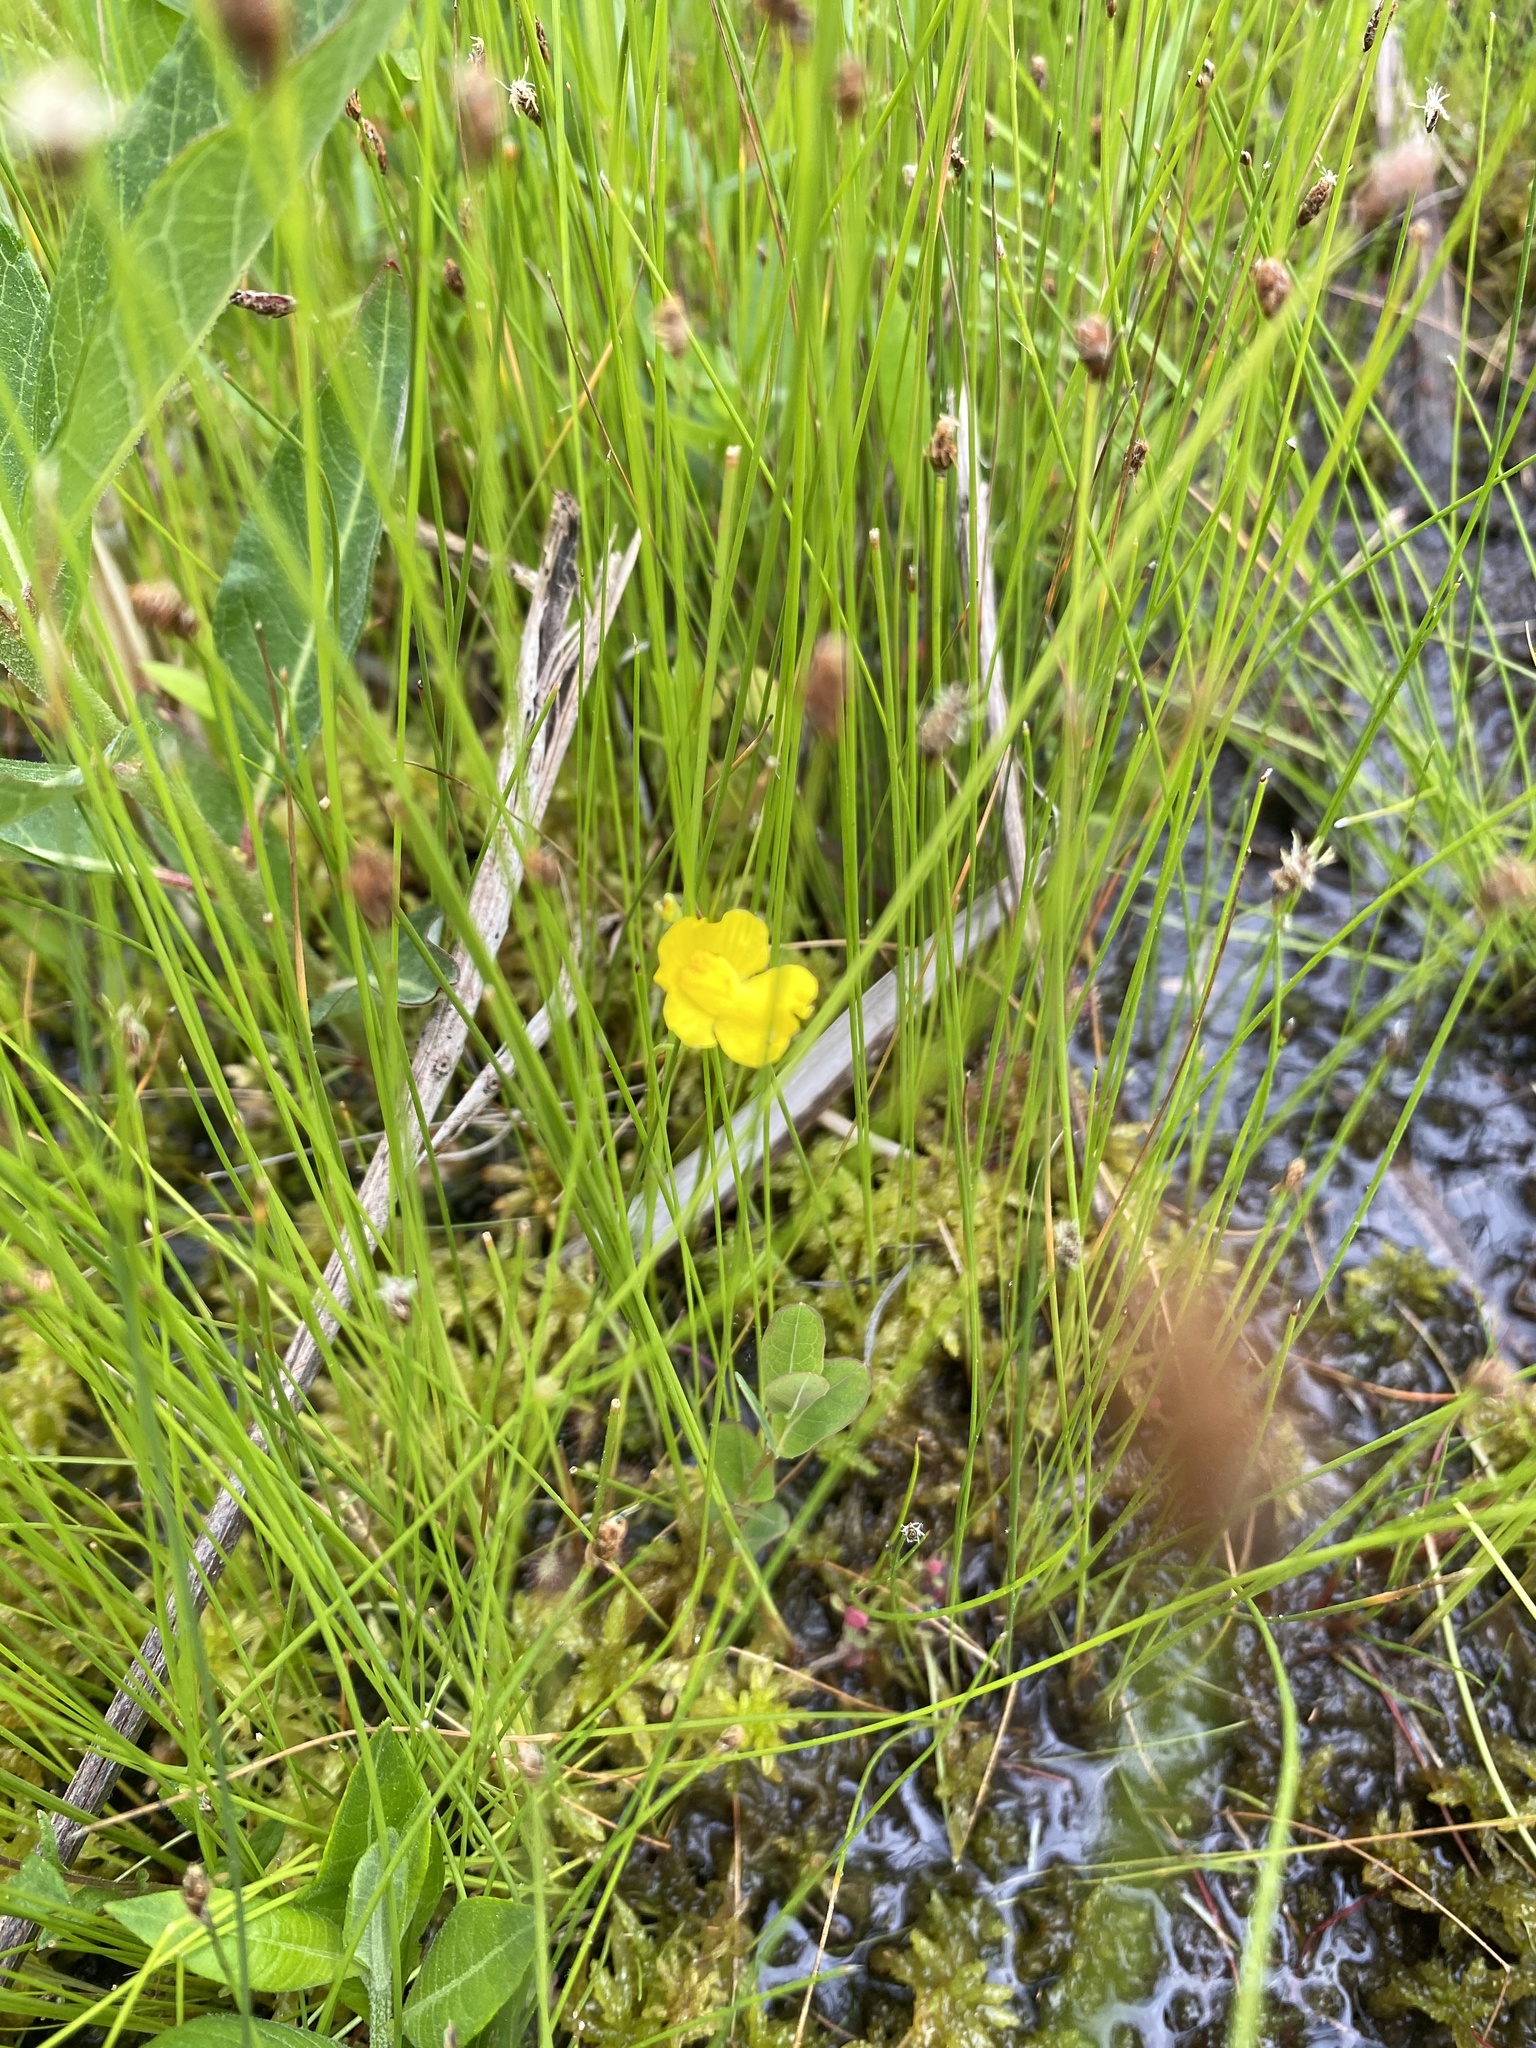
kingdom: Plantae
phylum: Tracheophyta
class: Magnoliopsida
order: Lamiales
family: Lentibulariaceae
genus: Utricularia
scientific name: Utricularia gibba
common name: Humped bladderwort
